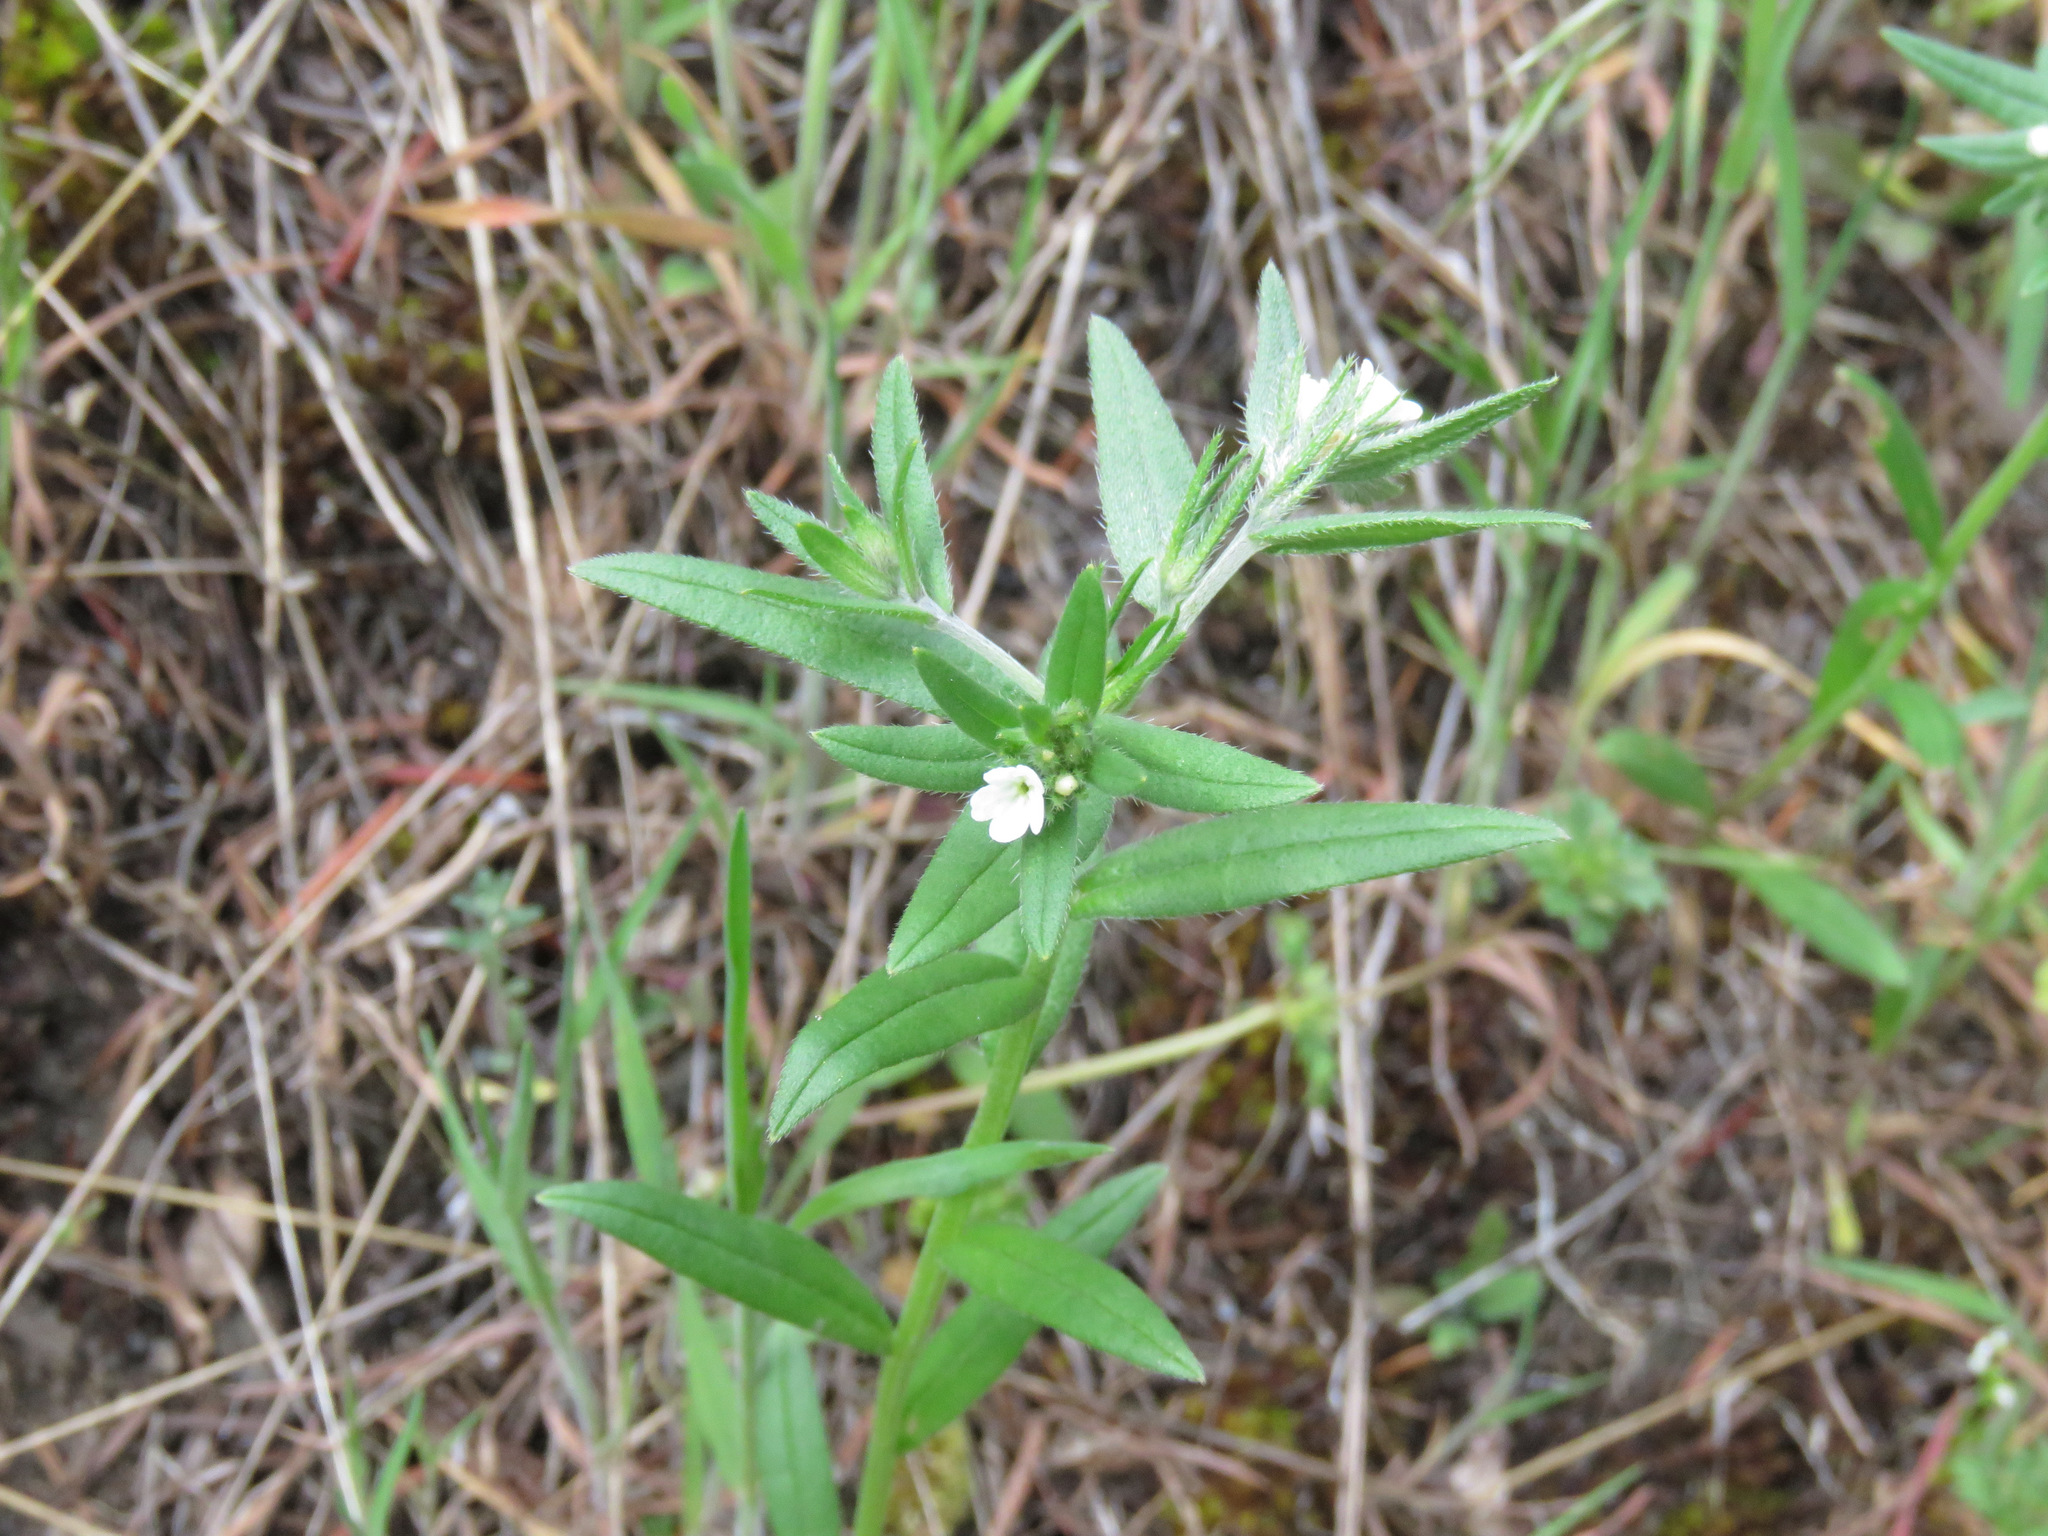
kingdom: Plantae
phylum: Tracheophyta
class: Magnoliopsida
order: Boraginales
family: Boraginaceae
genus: Buglossoides
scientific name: Buglossoides arvensis
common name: Corn gromwell
